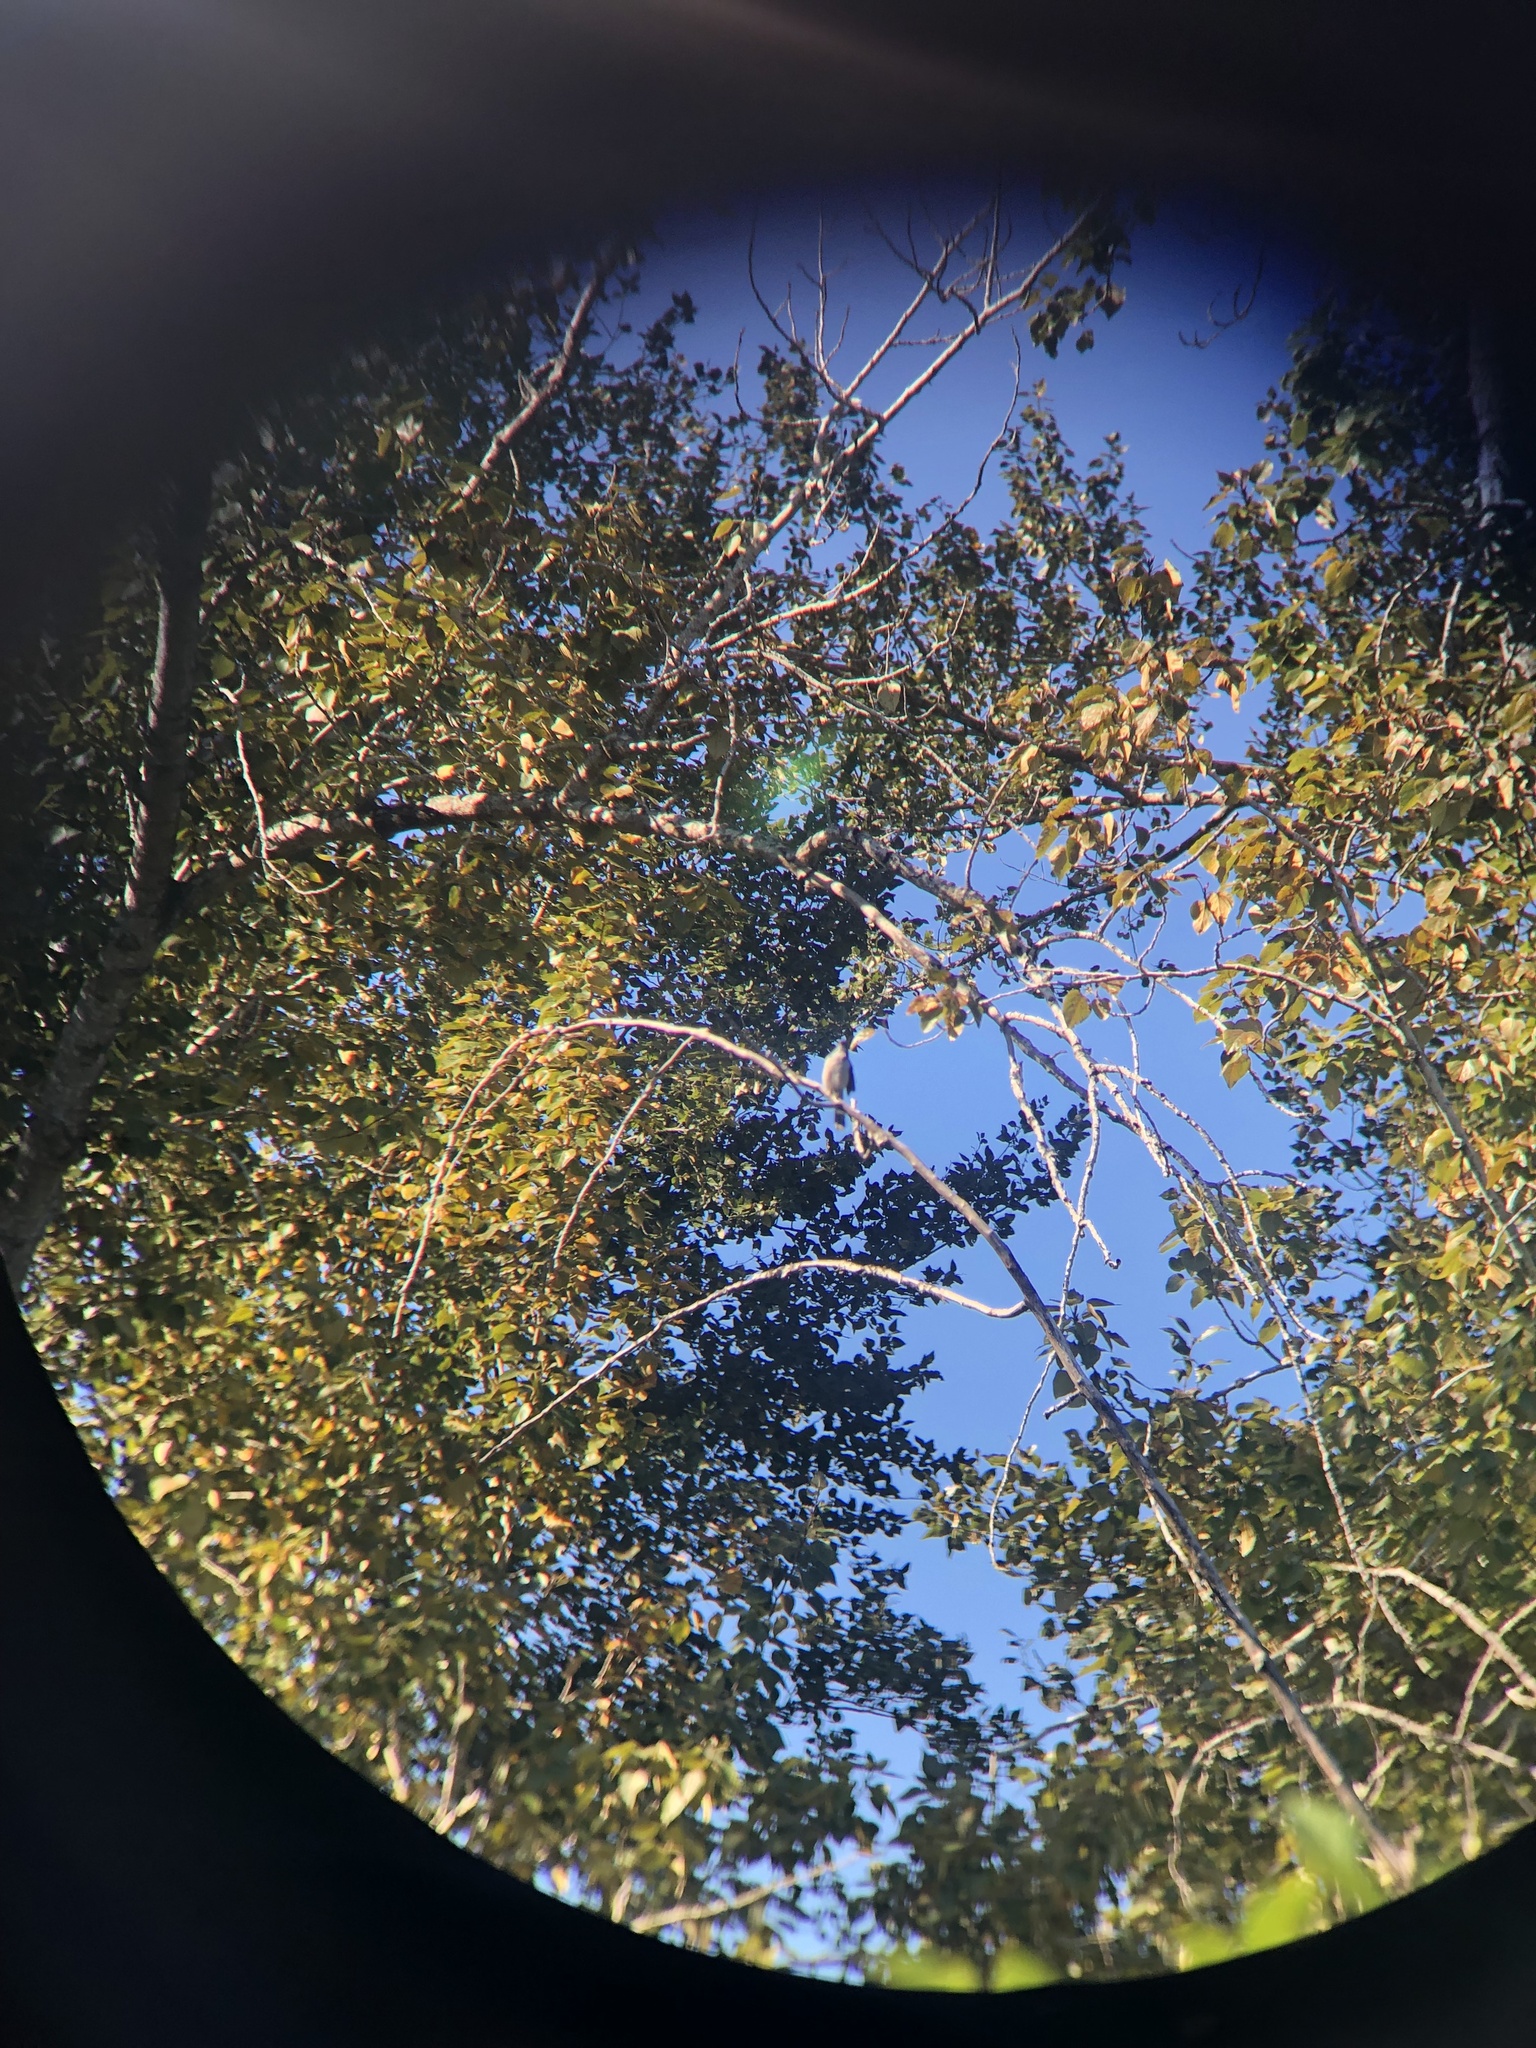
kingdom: Animalia
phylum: Chordata
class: Aves
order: Passeriformes
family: Corvidae
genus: Aphelocoma
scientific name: Aphelocoma californica
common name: California scrub-jay
